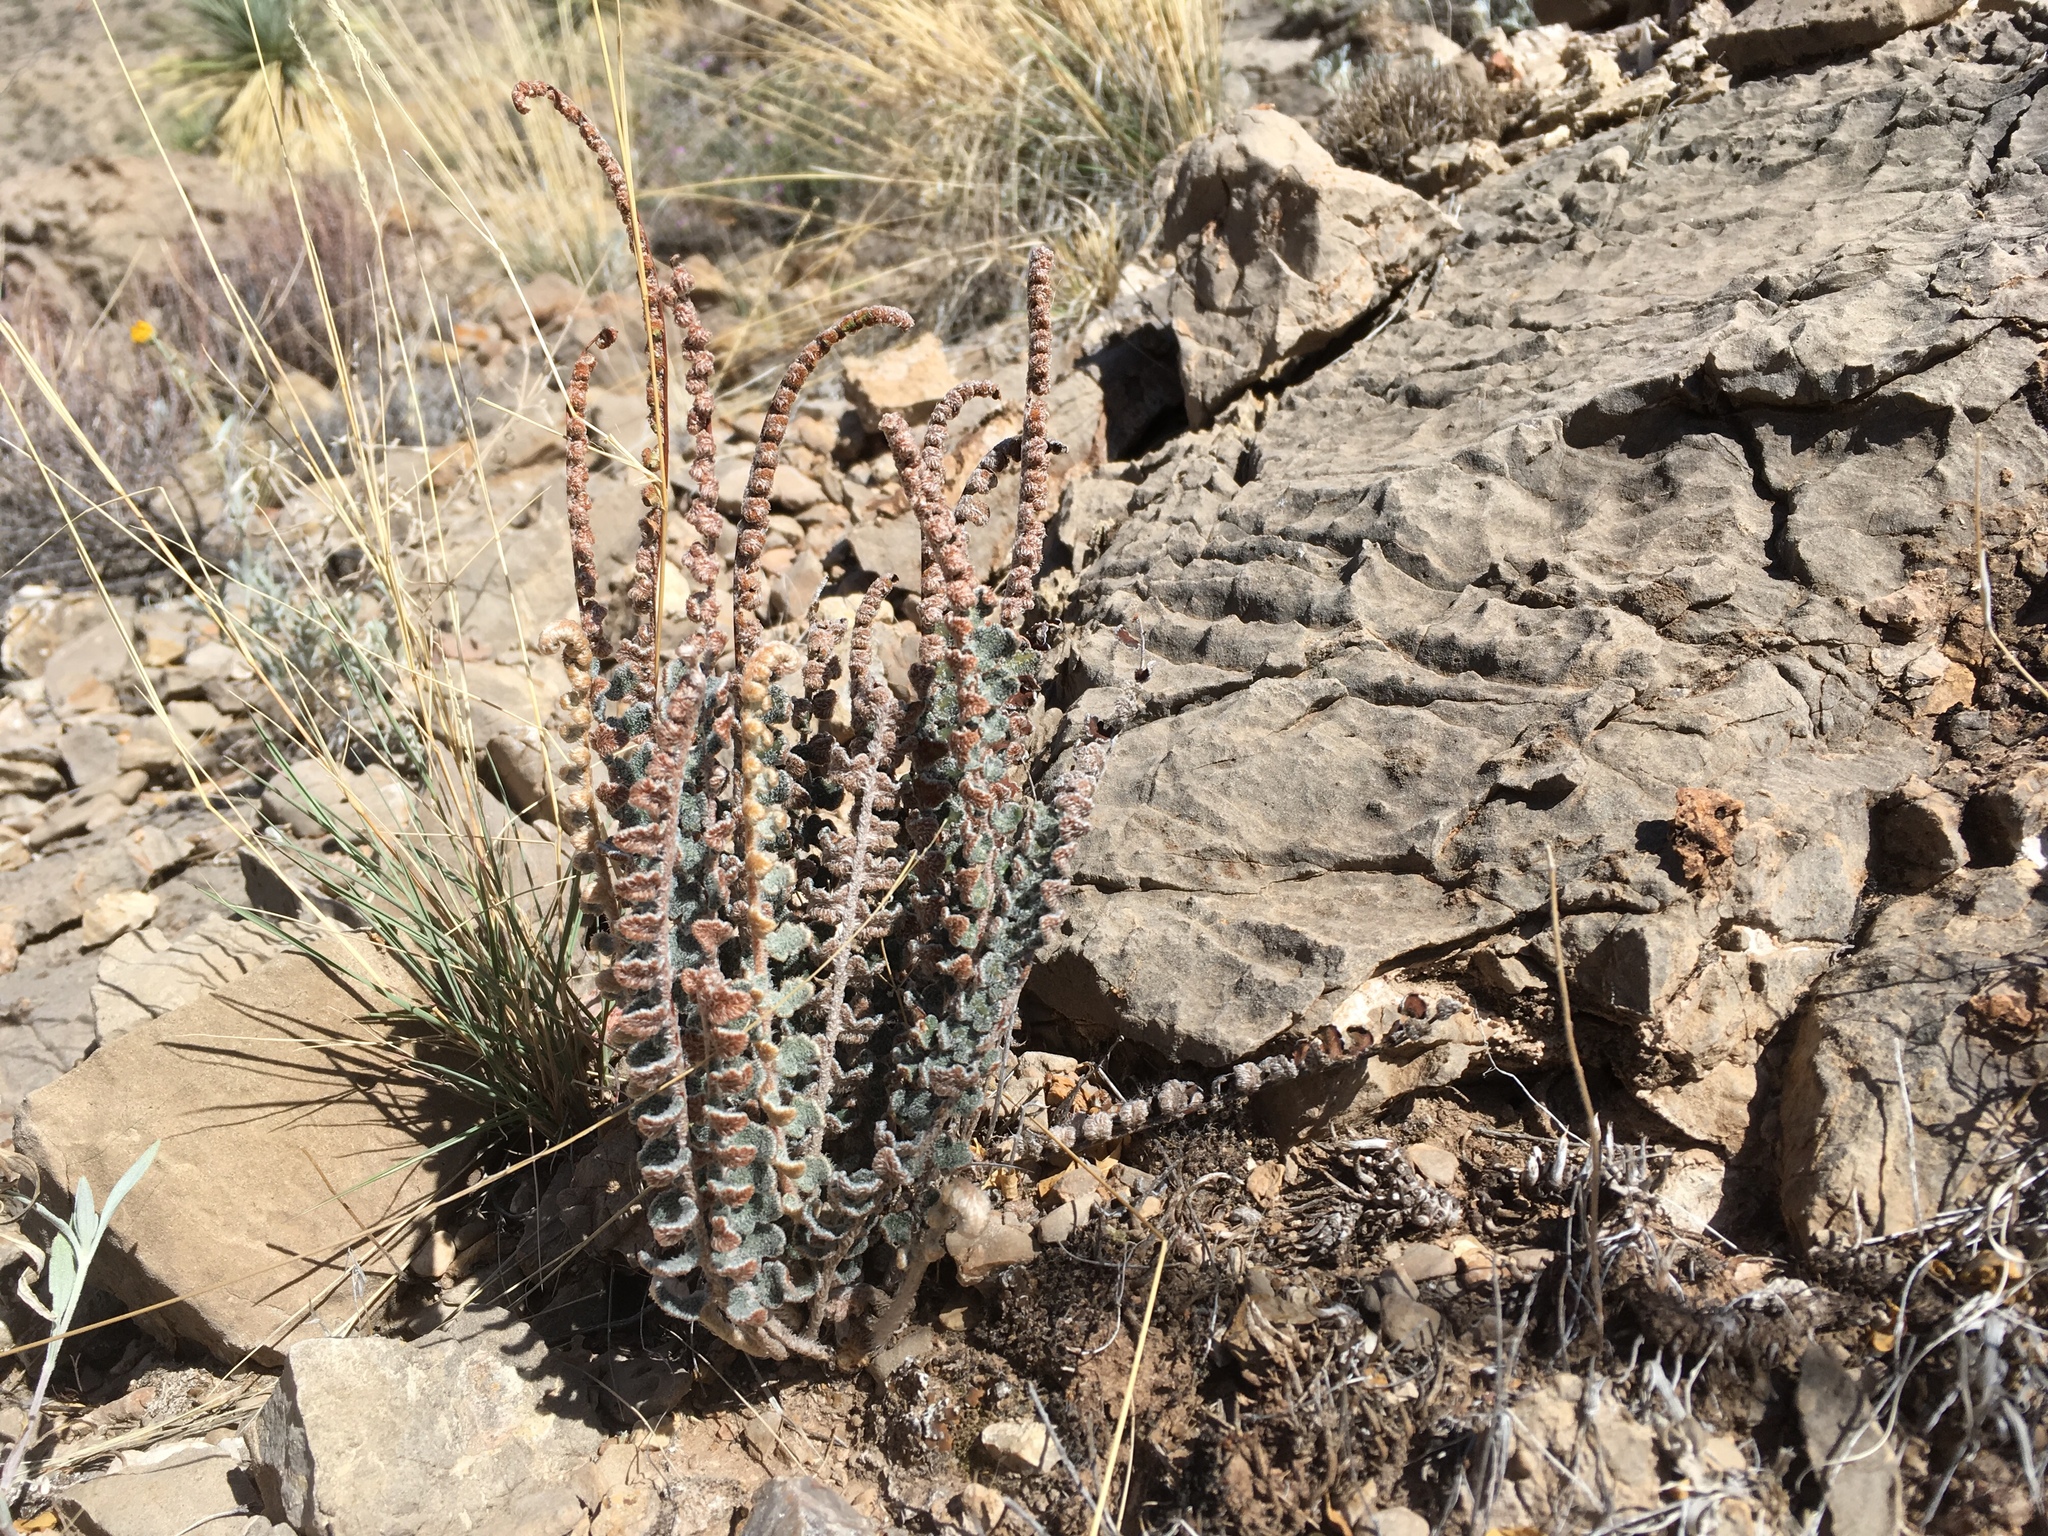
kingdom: Plantae
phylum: Tracheophyta
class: Polypodiopsida
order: Polypodiales
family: Pteridaceae
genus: Astrolepis
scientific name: Astrolepis integerrima
